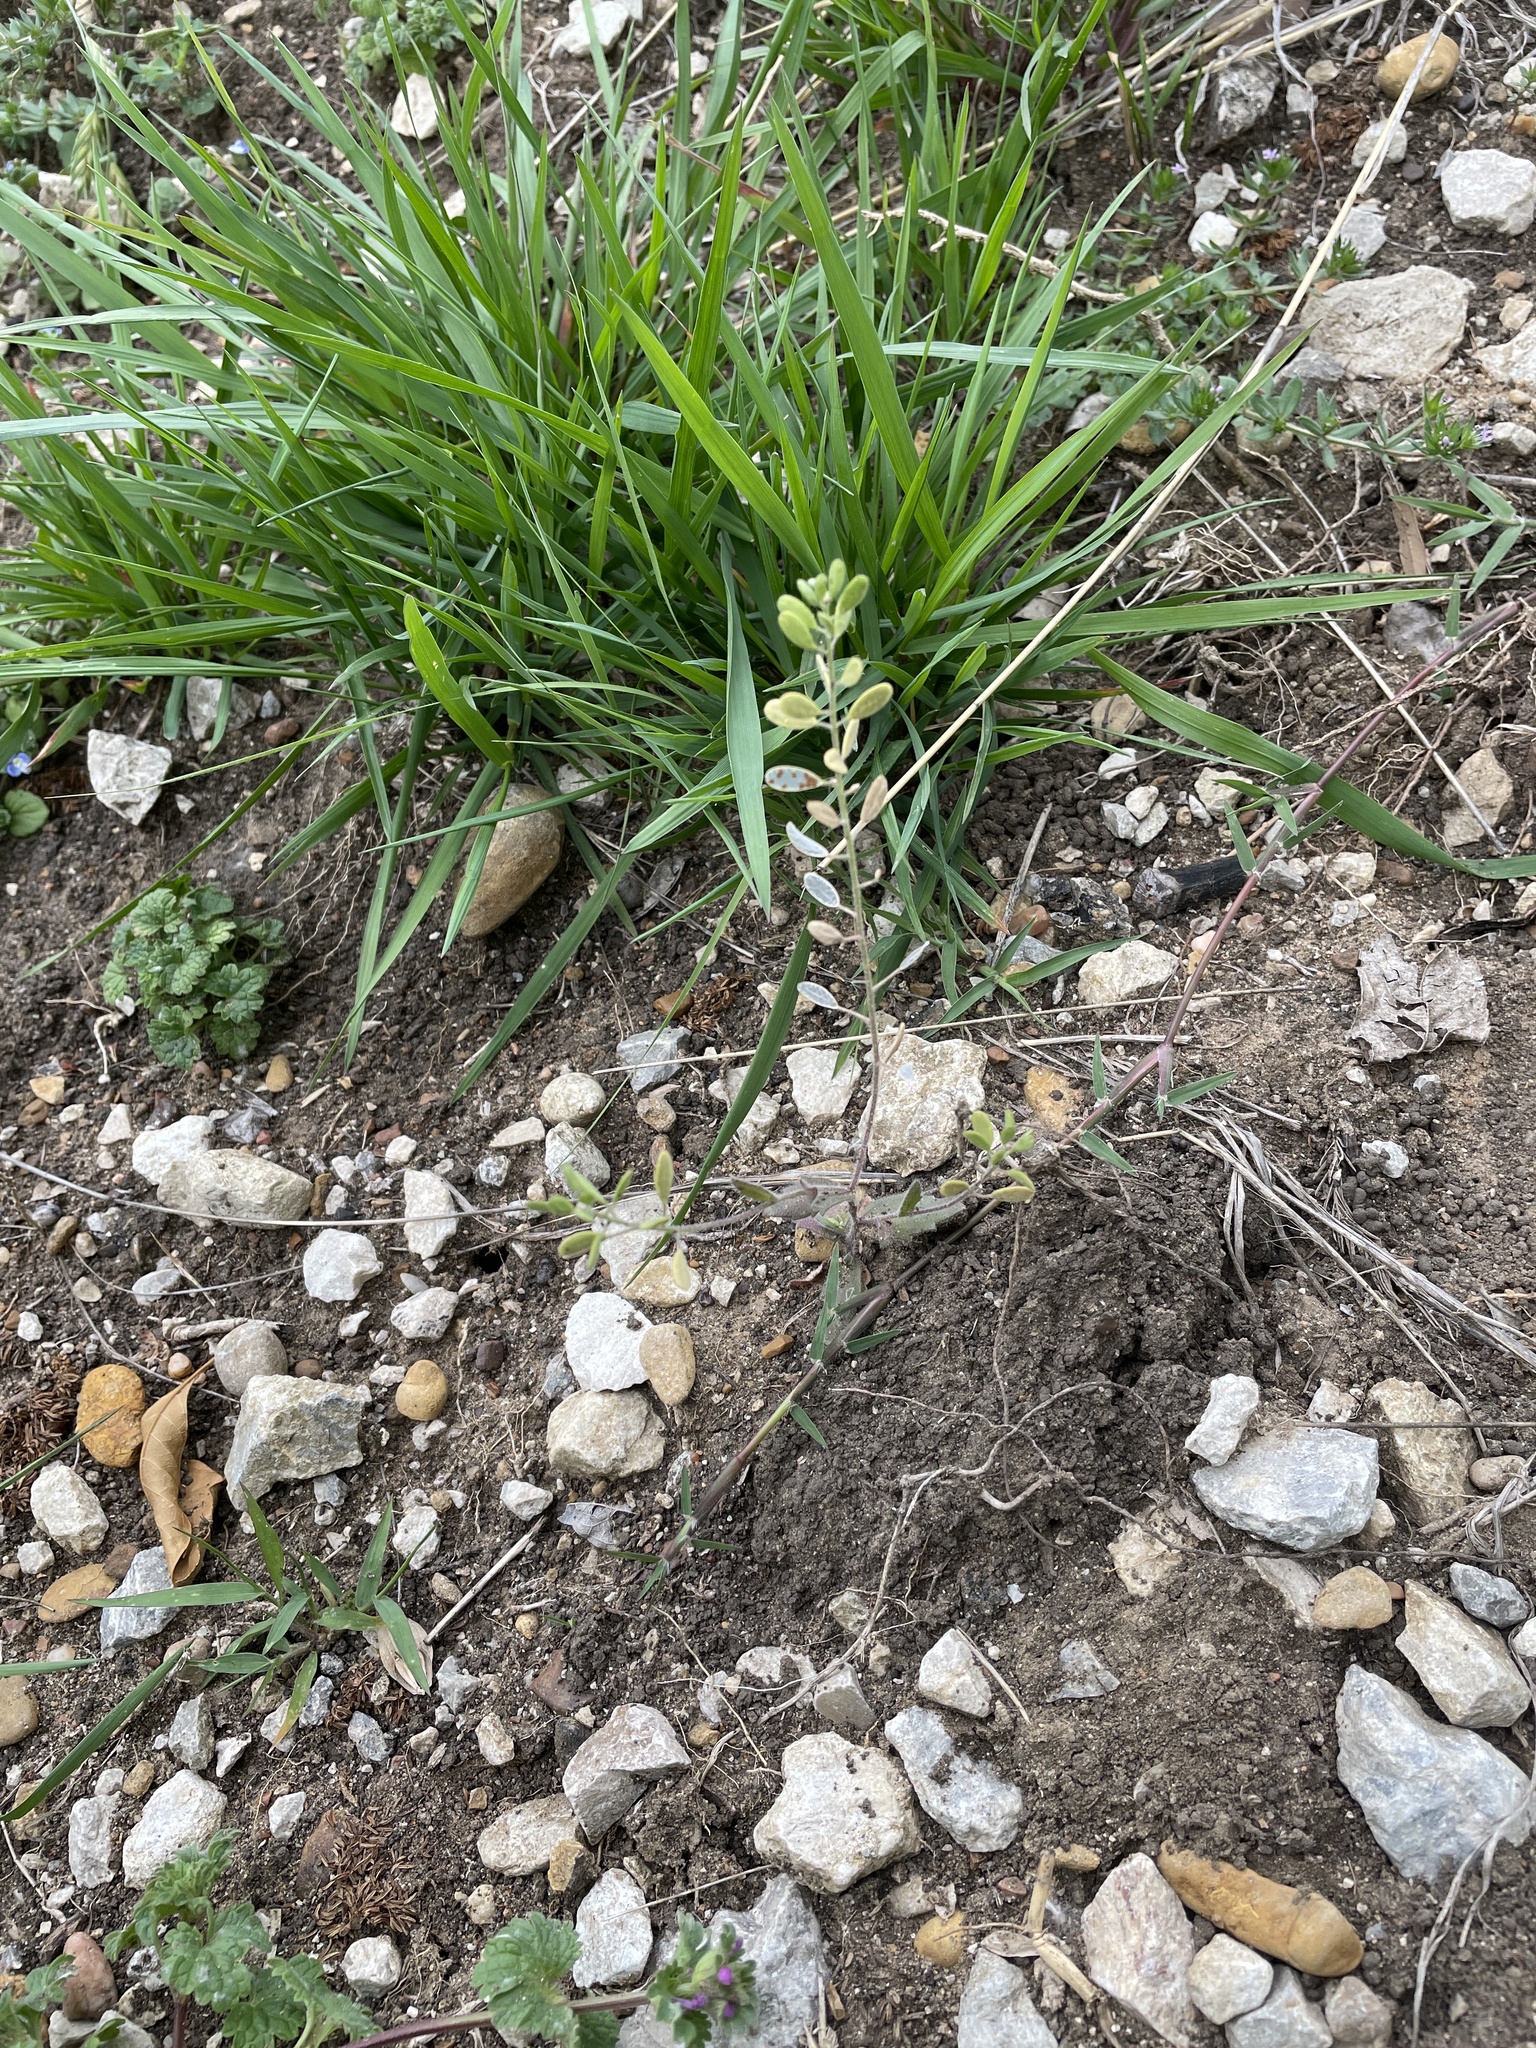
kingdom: Plantae
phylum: Tracheophyta
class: Magnoliopsida
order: Brassicales
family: Brassicaceae
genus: Tomostima
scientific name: Tomostima platycarpa
